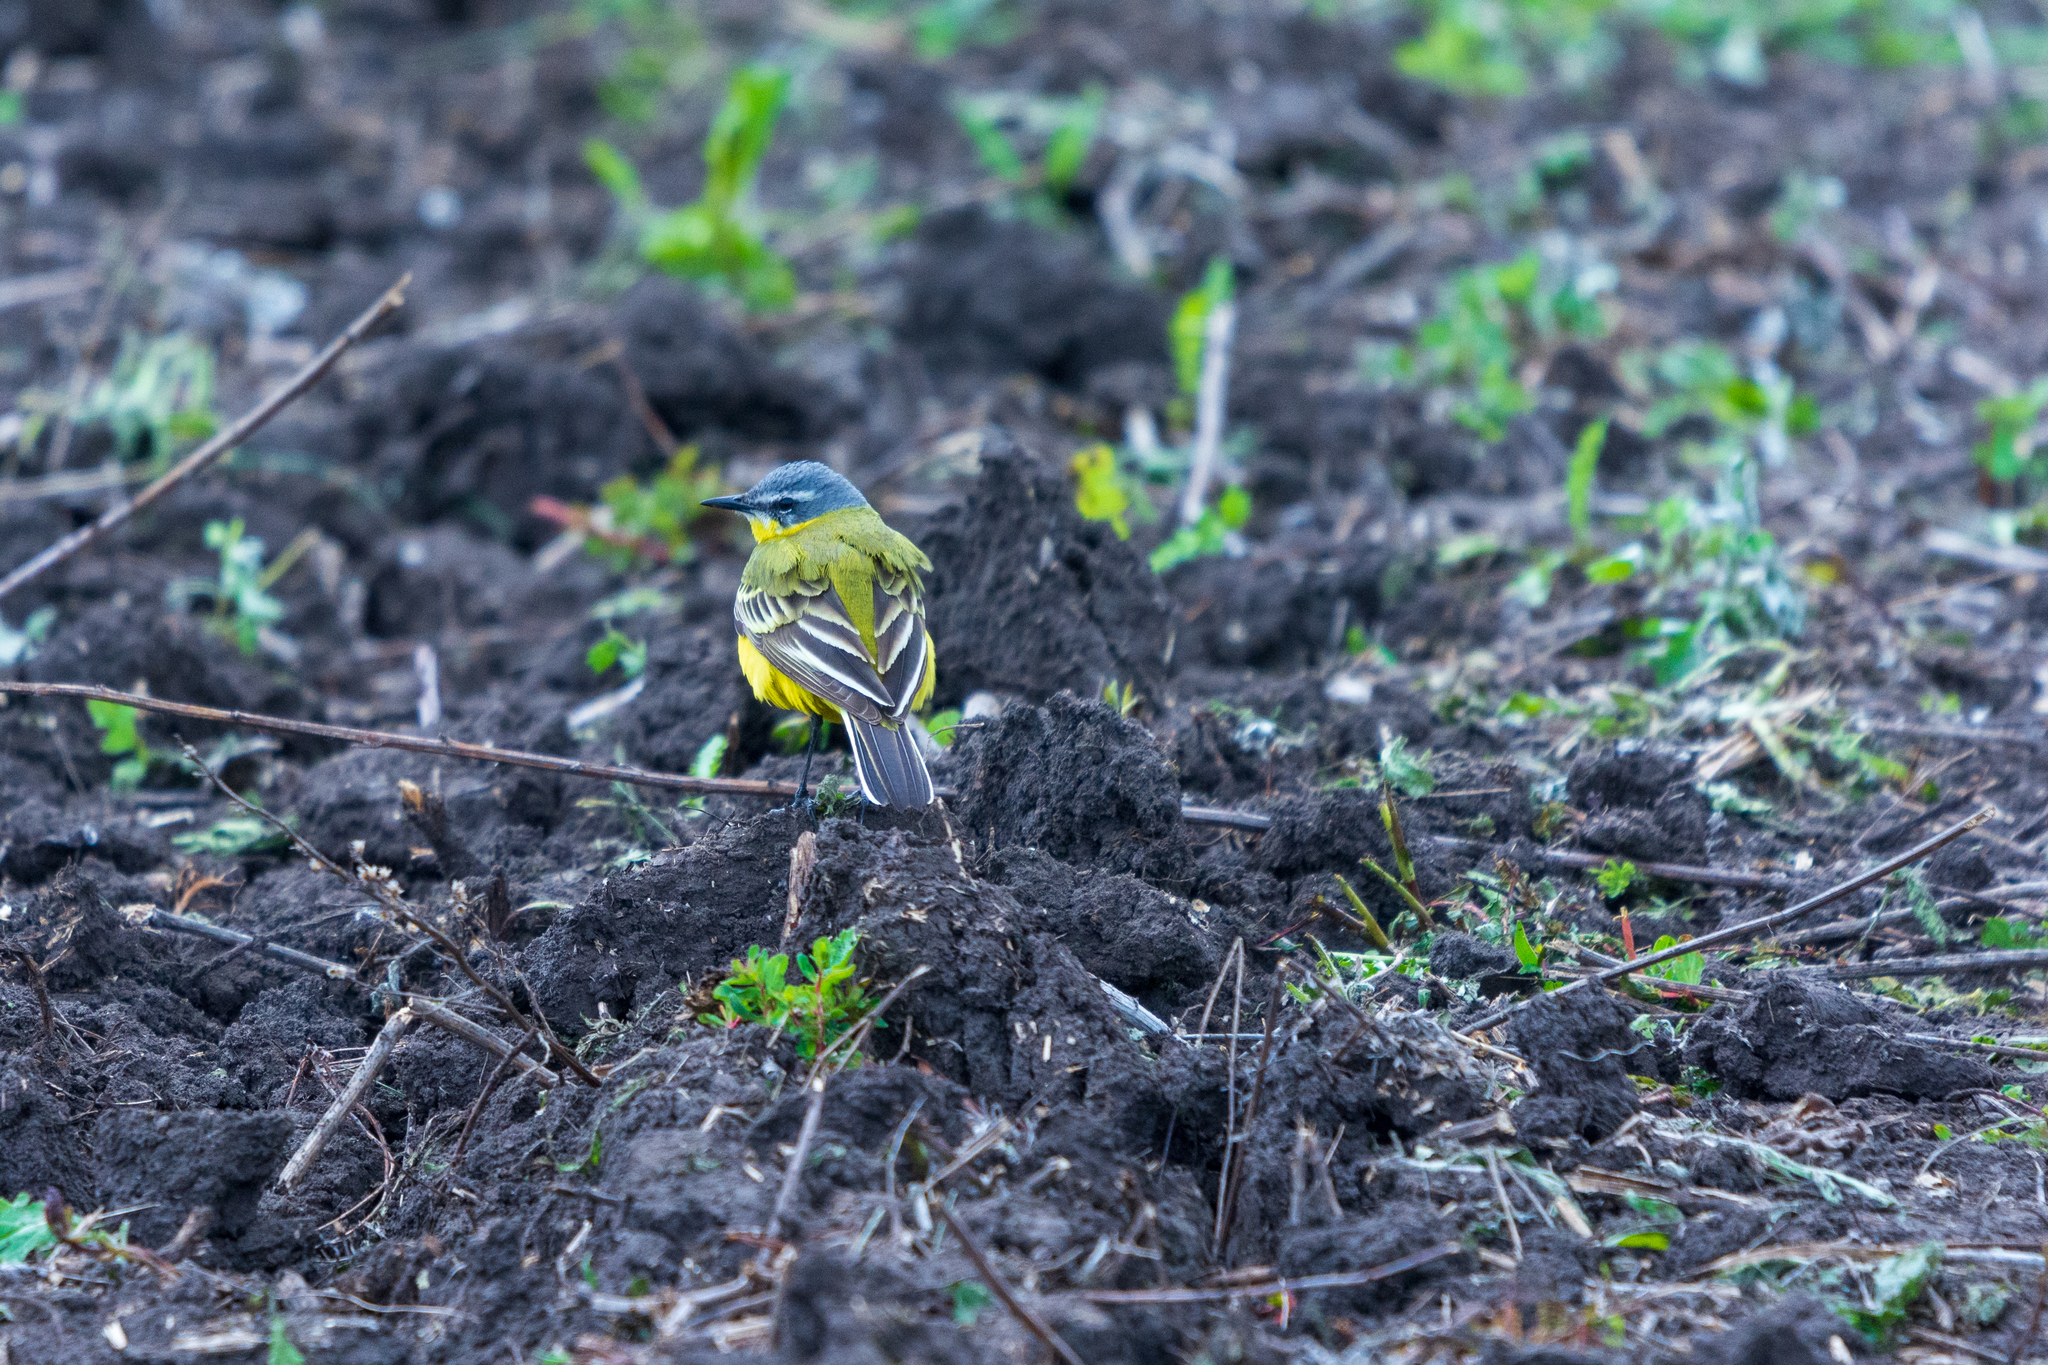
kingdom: Animalia
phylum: Chordata
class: Aves
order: Passeriformes
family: Motacillidae
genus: Motacilla
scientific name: Motacilla flava
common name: Western yellow wagtail
